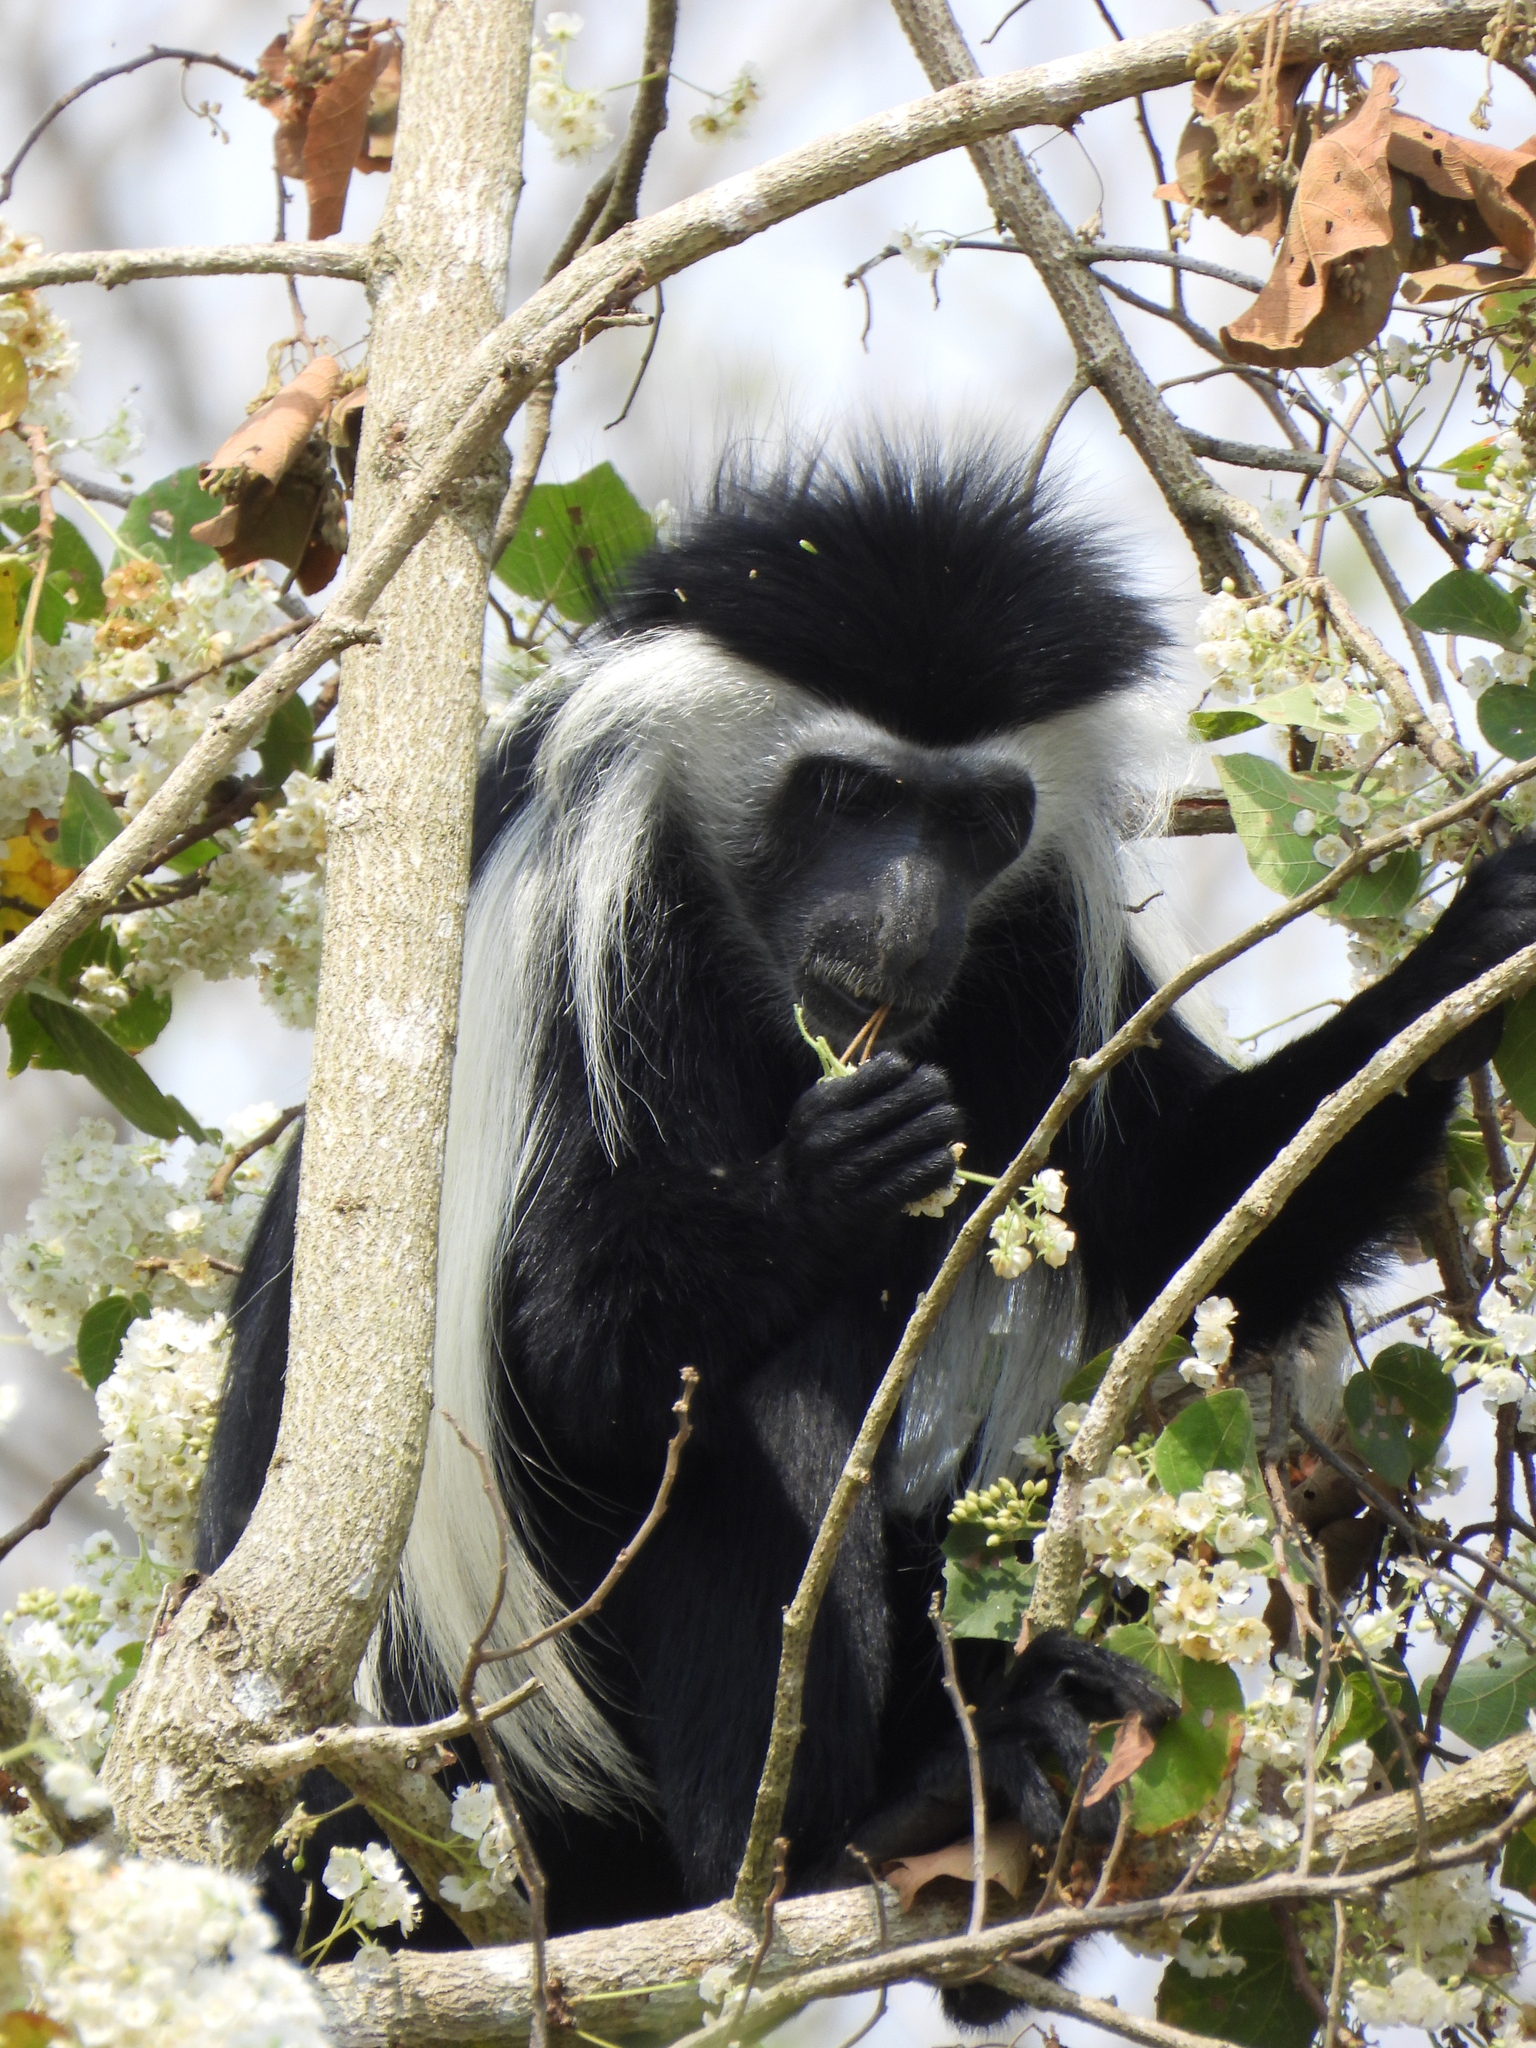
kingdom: Animalia
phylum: Chordata
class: Mammalia
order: Primates
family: Cercopithecidae
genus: Colobus
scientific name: Colobus angolensis
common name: Angola colobus
